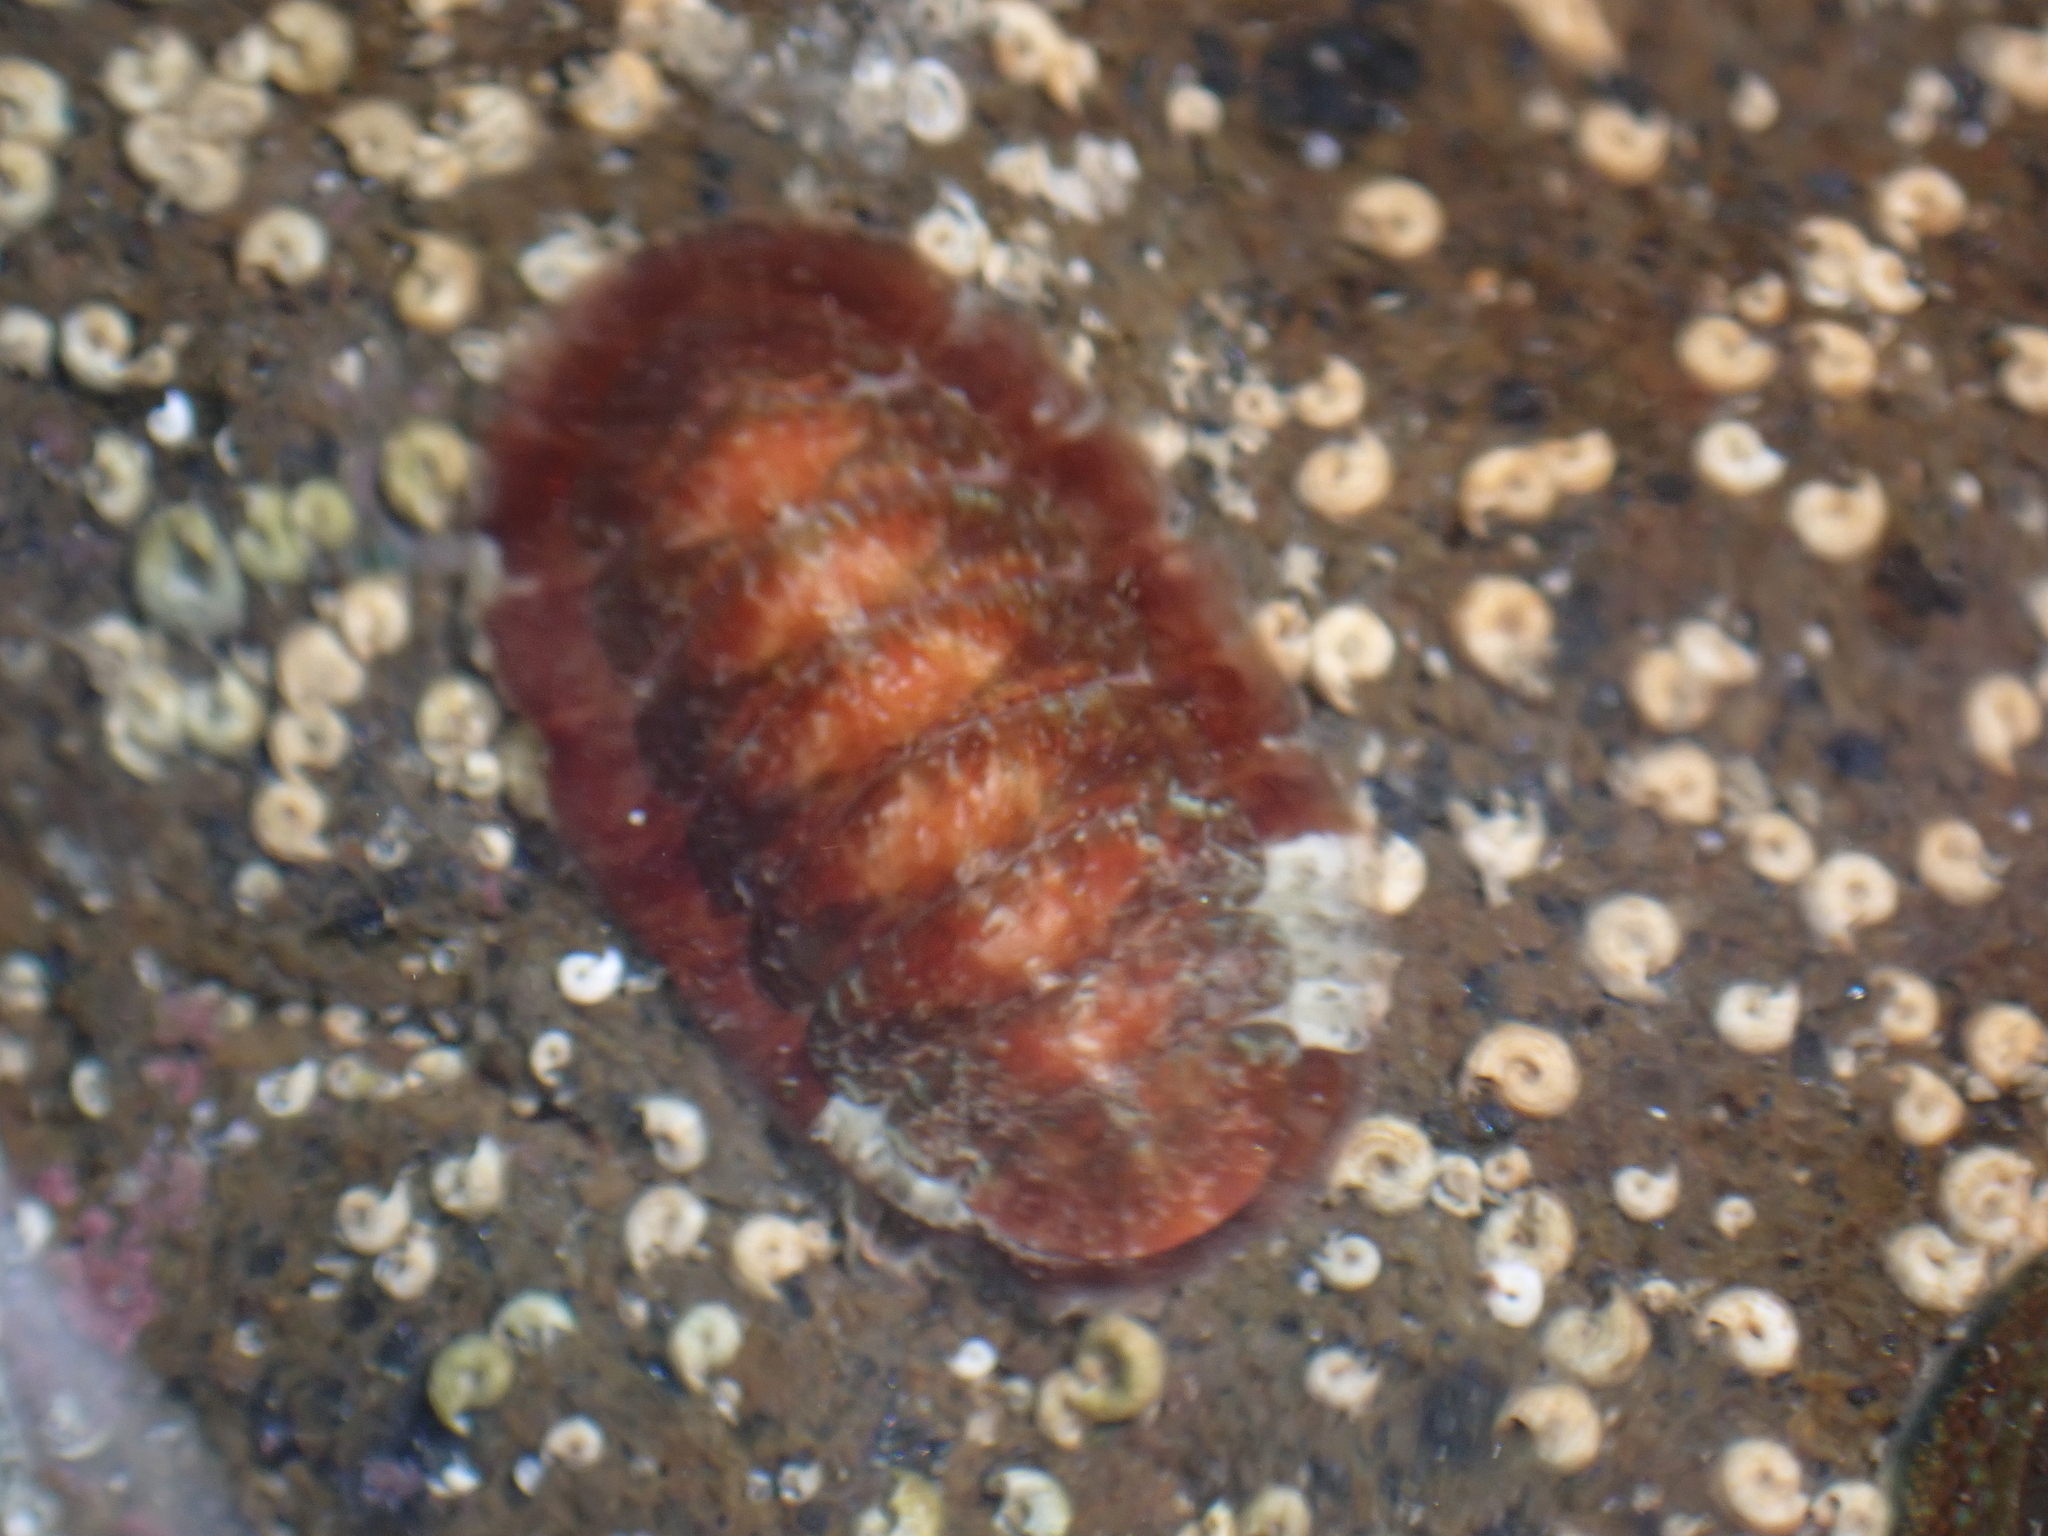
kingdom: Animalia
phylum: Mollusca
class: Polyplacophora
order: Callochitonida
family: Callochitonidae
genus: Eudoxochiton
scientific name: Eudoxochiton nobilis
